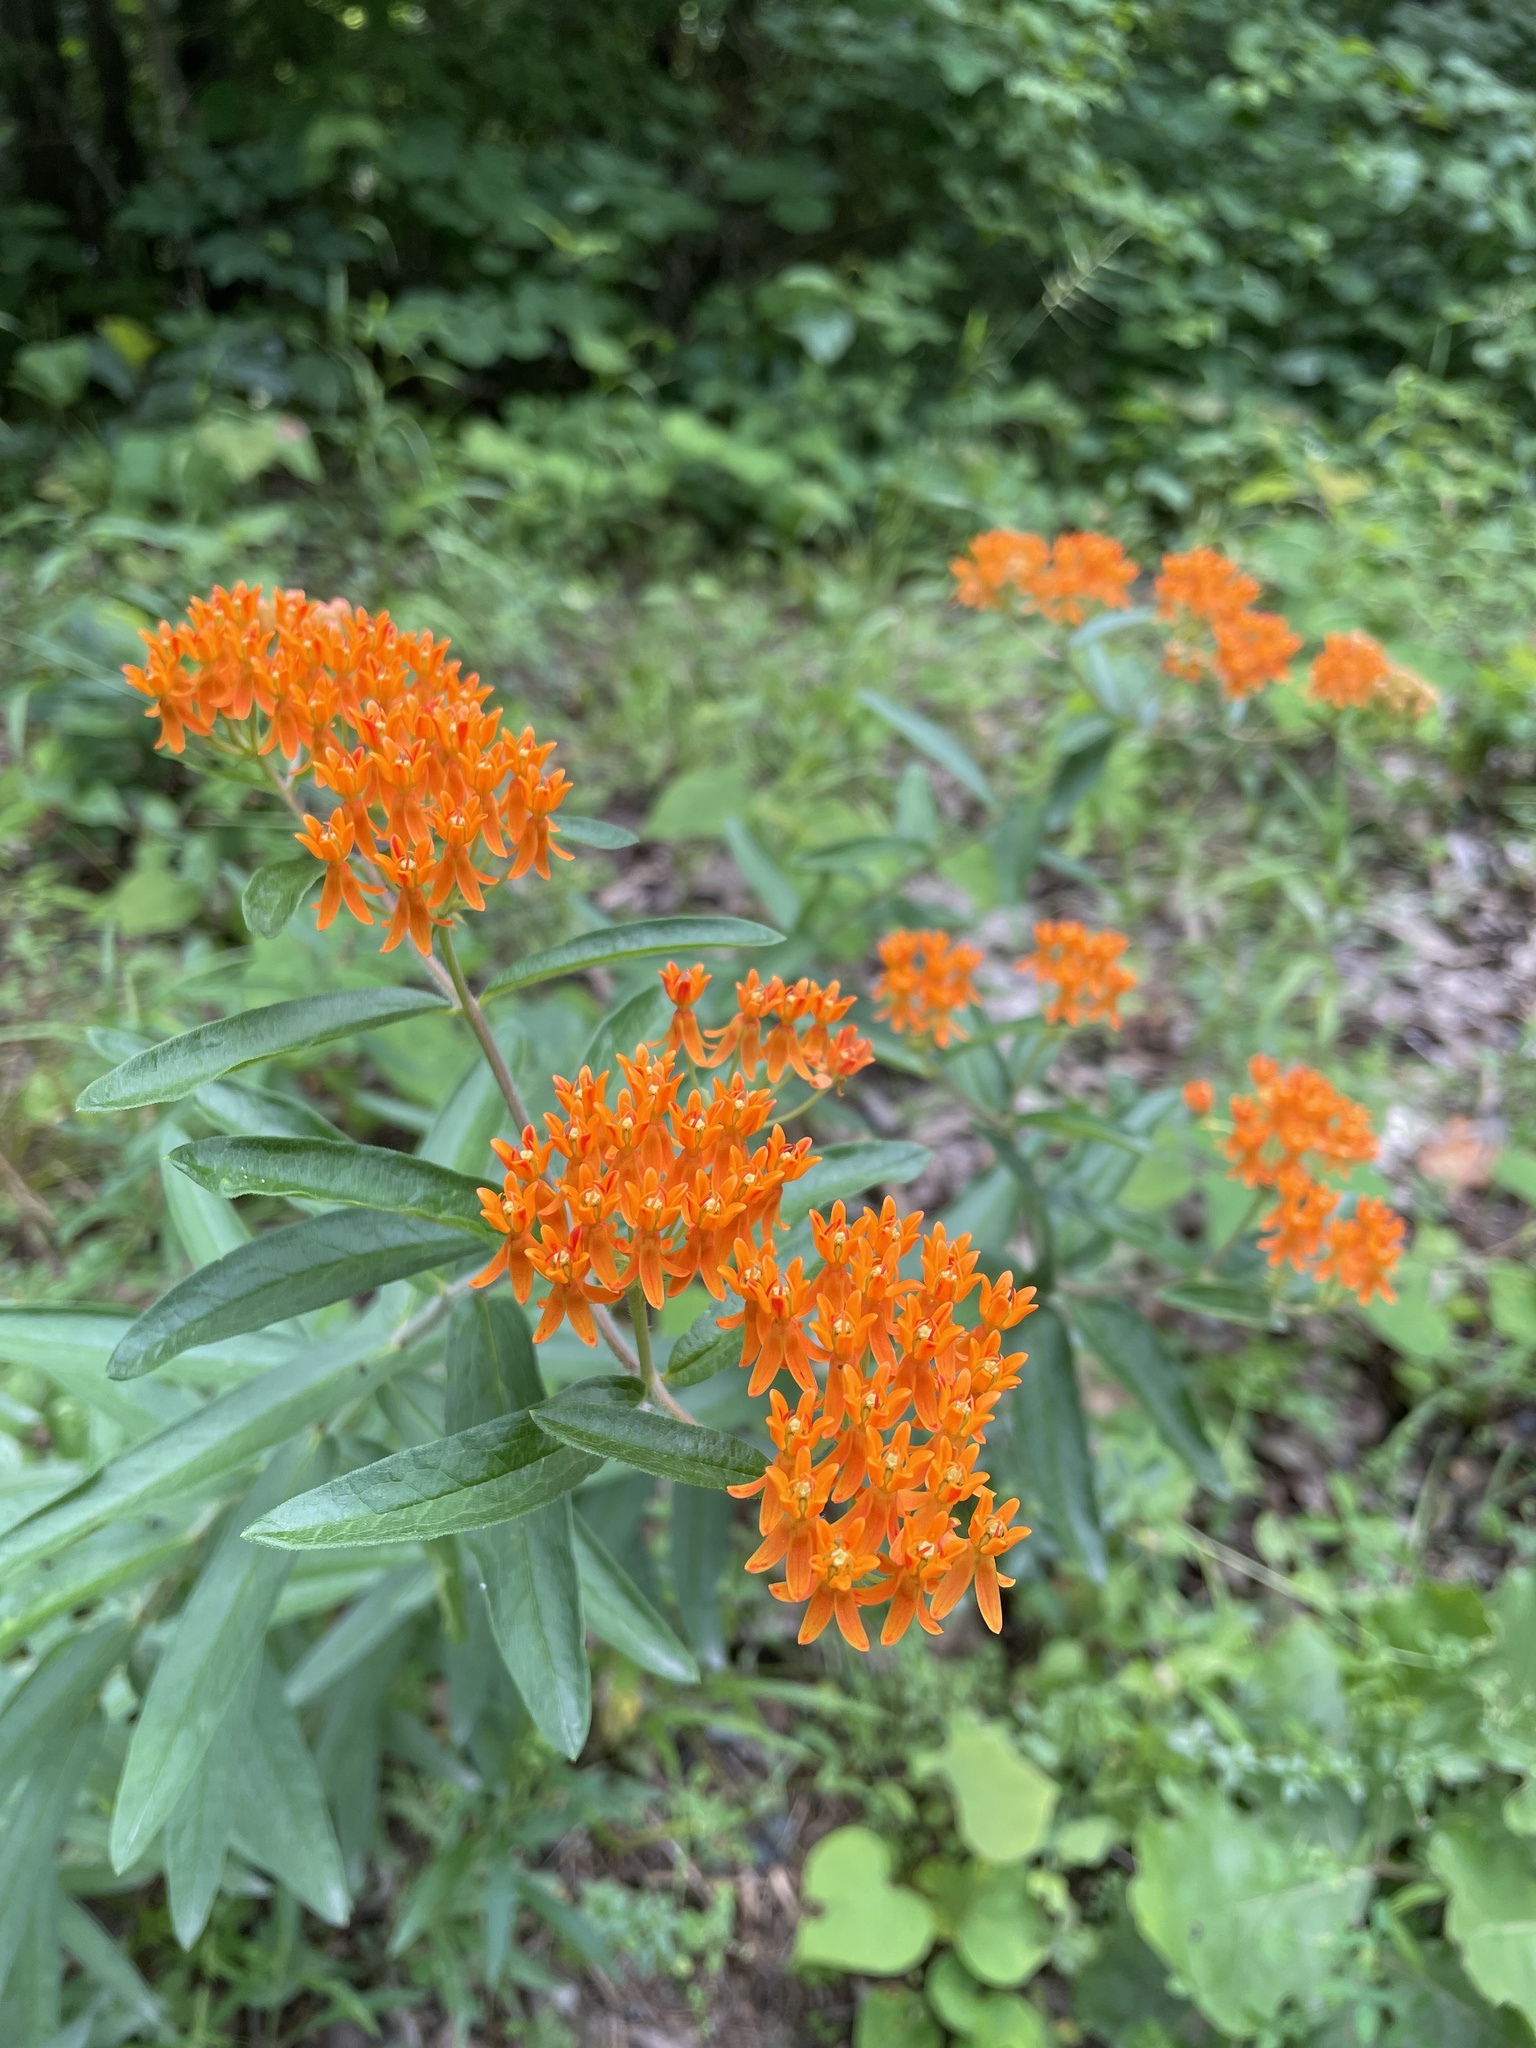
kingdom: Plantae
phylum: Tracheophyta
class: Magnoliopsida
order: Gentianales
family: Apocynaceae
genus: Asclepias
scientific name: Asclepias tuberosa
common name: Butterfly milkweed
